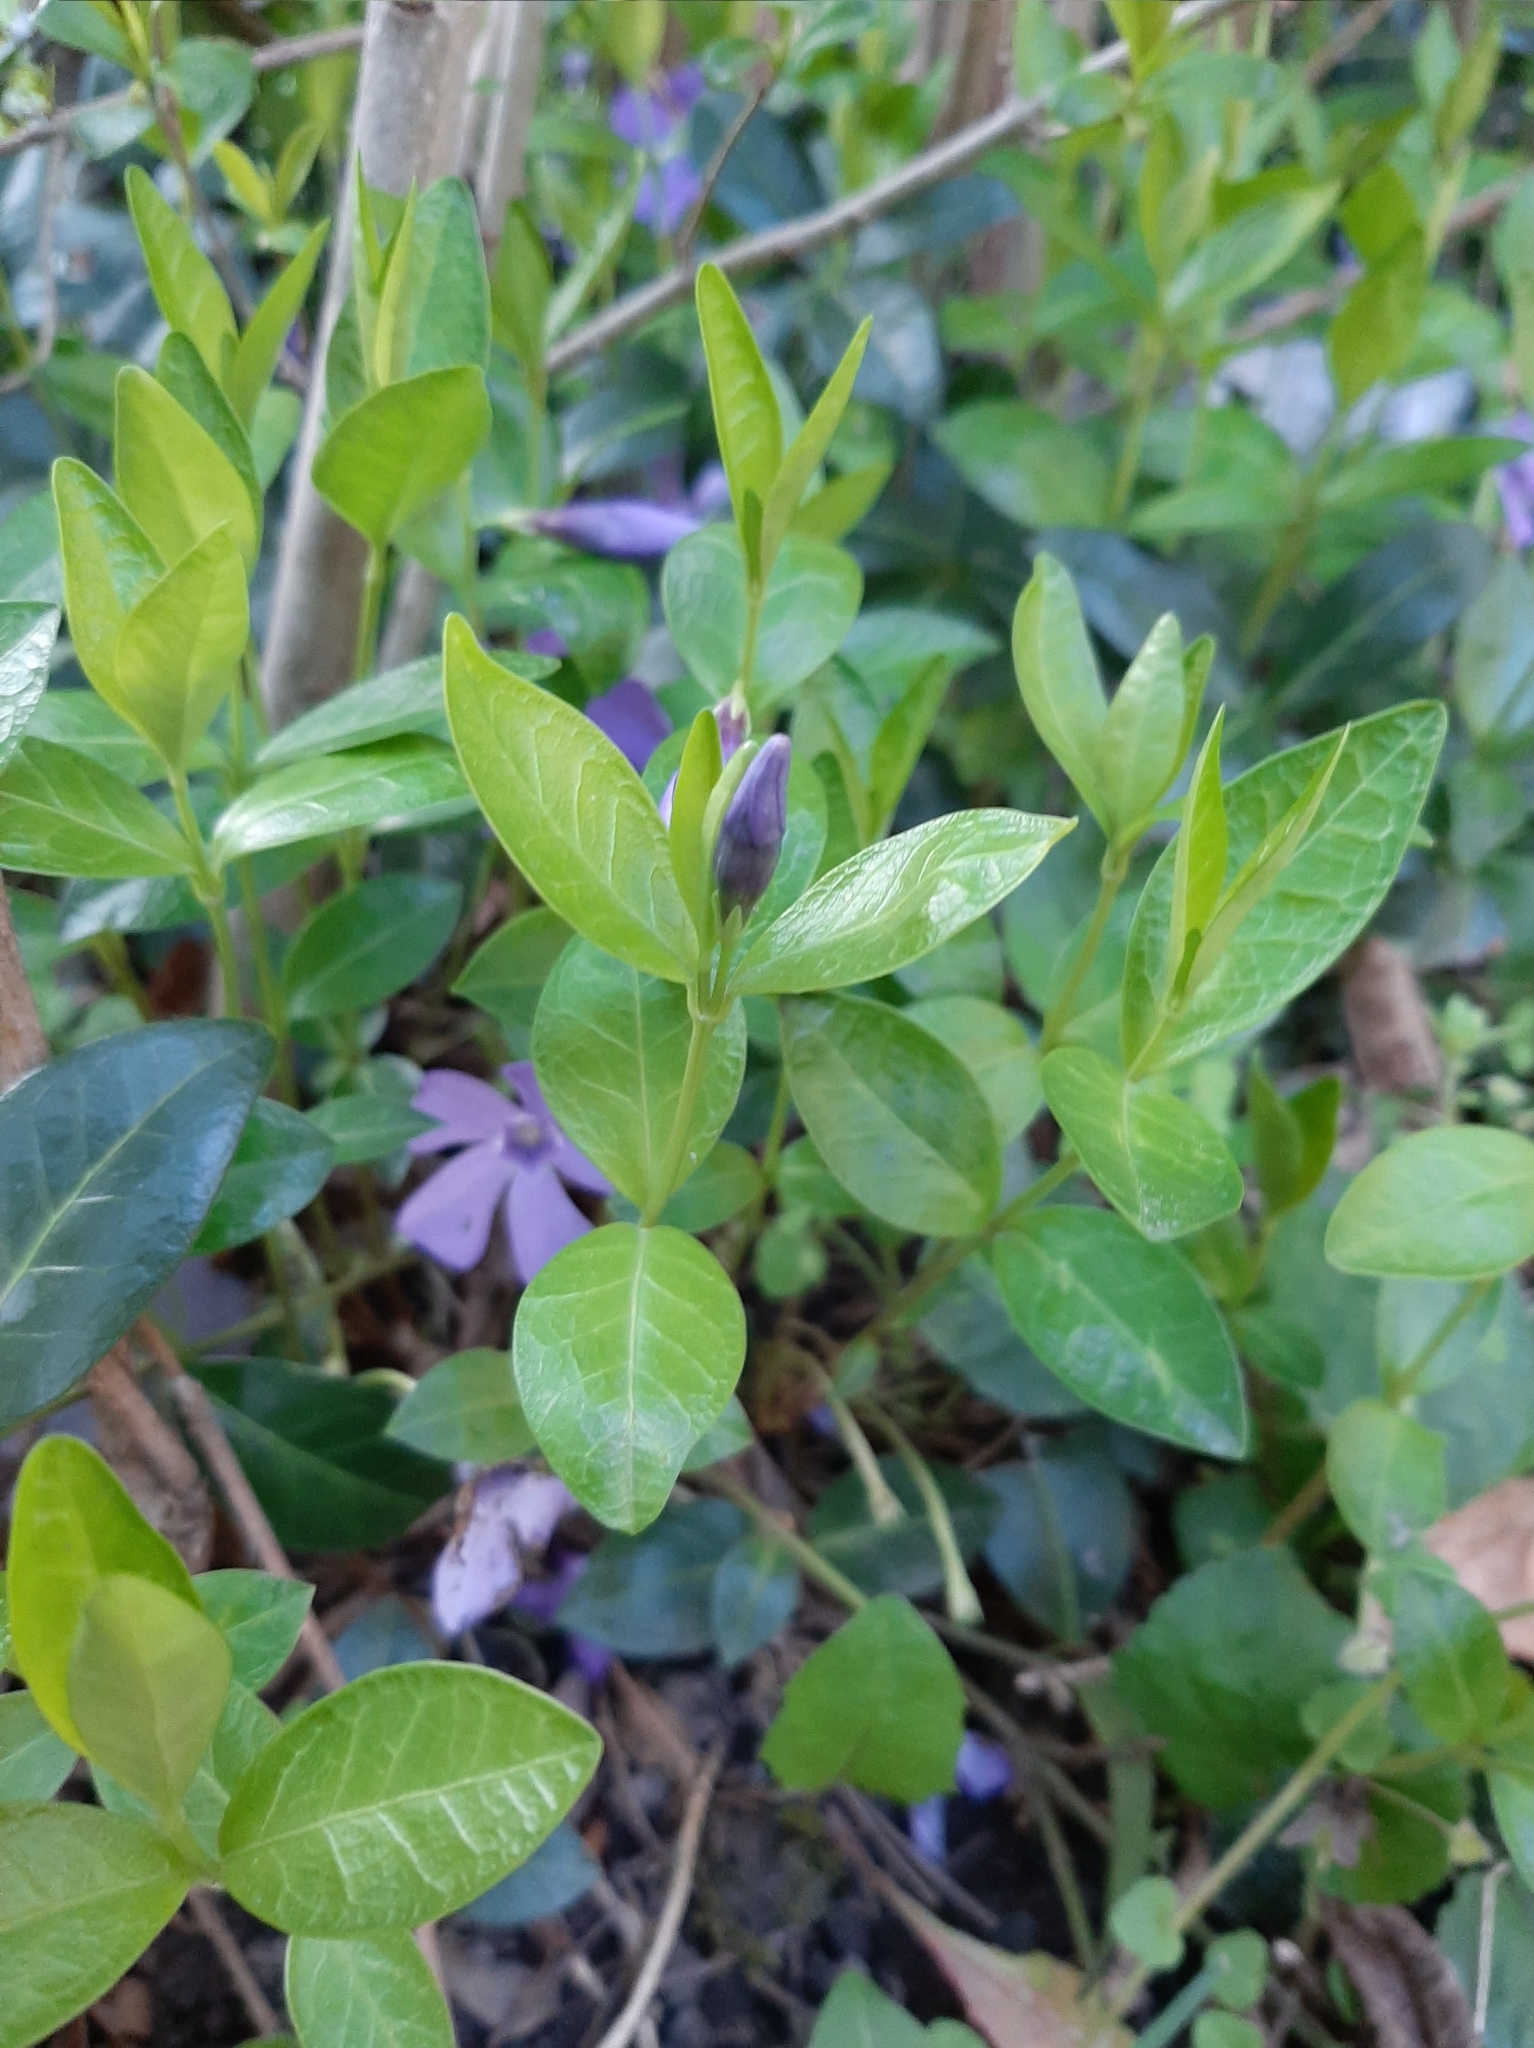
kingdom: Plantae
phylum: Tracheophyta
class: Magnoliopsida
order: Gentianales
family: Apocynaceae
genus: Vinca
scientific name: Vinca minor
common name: Lesser periwinkle
